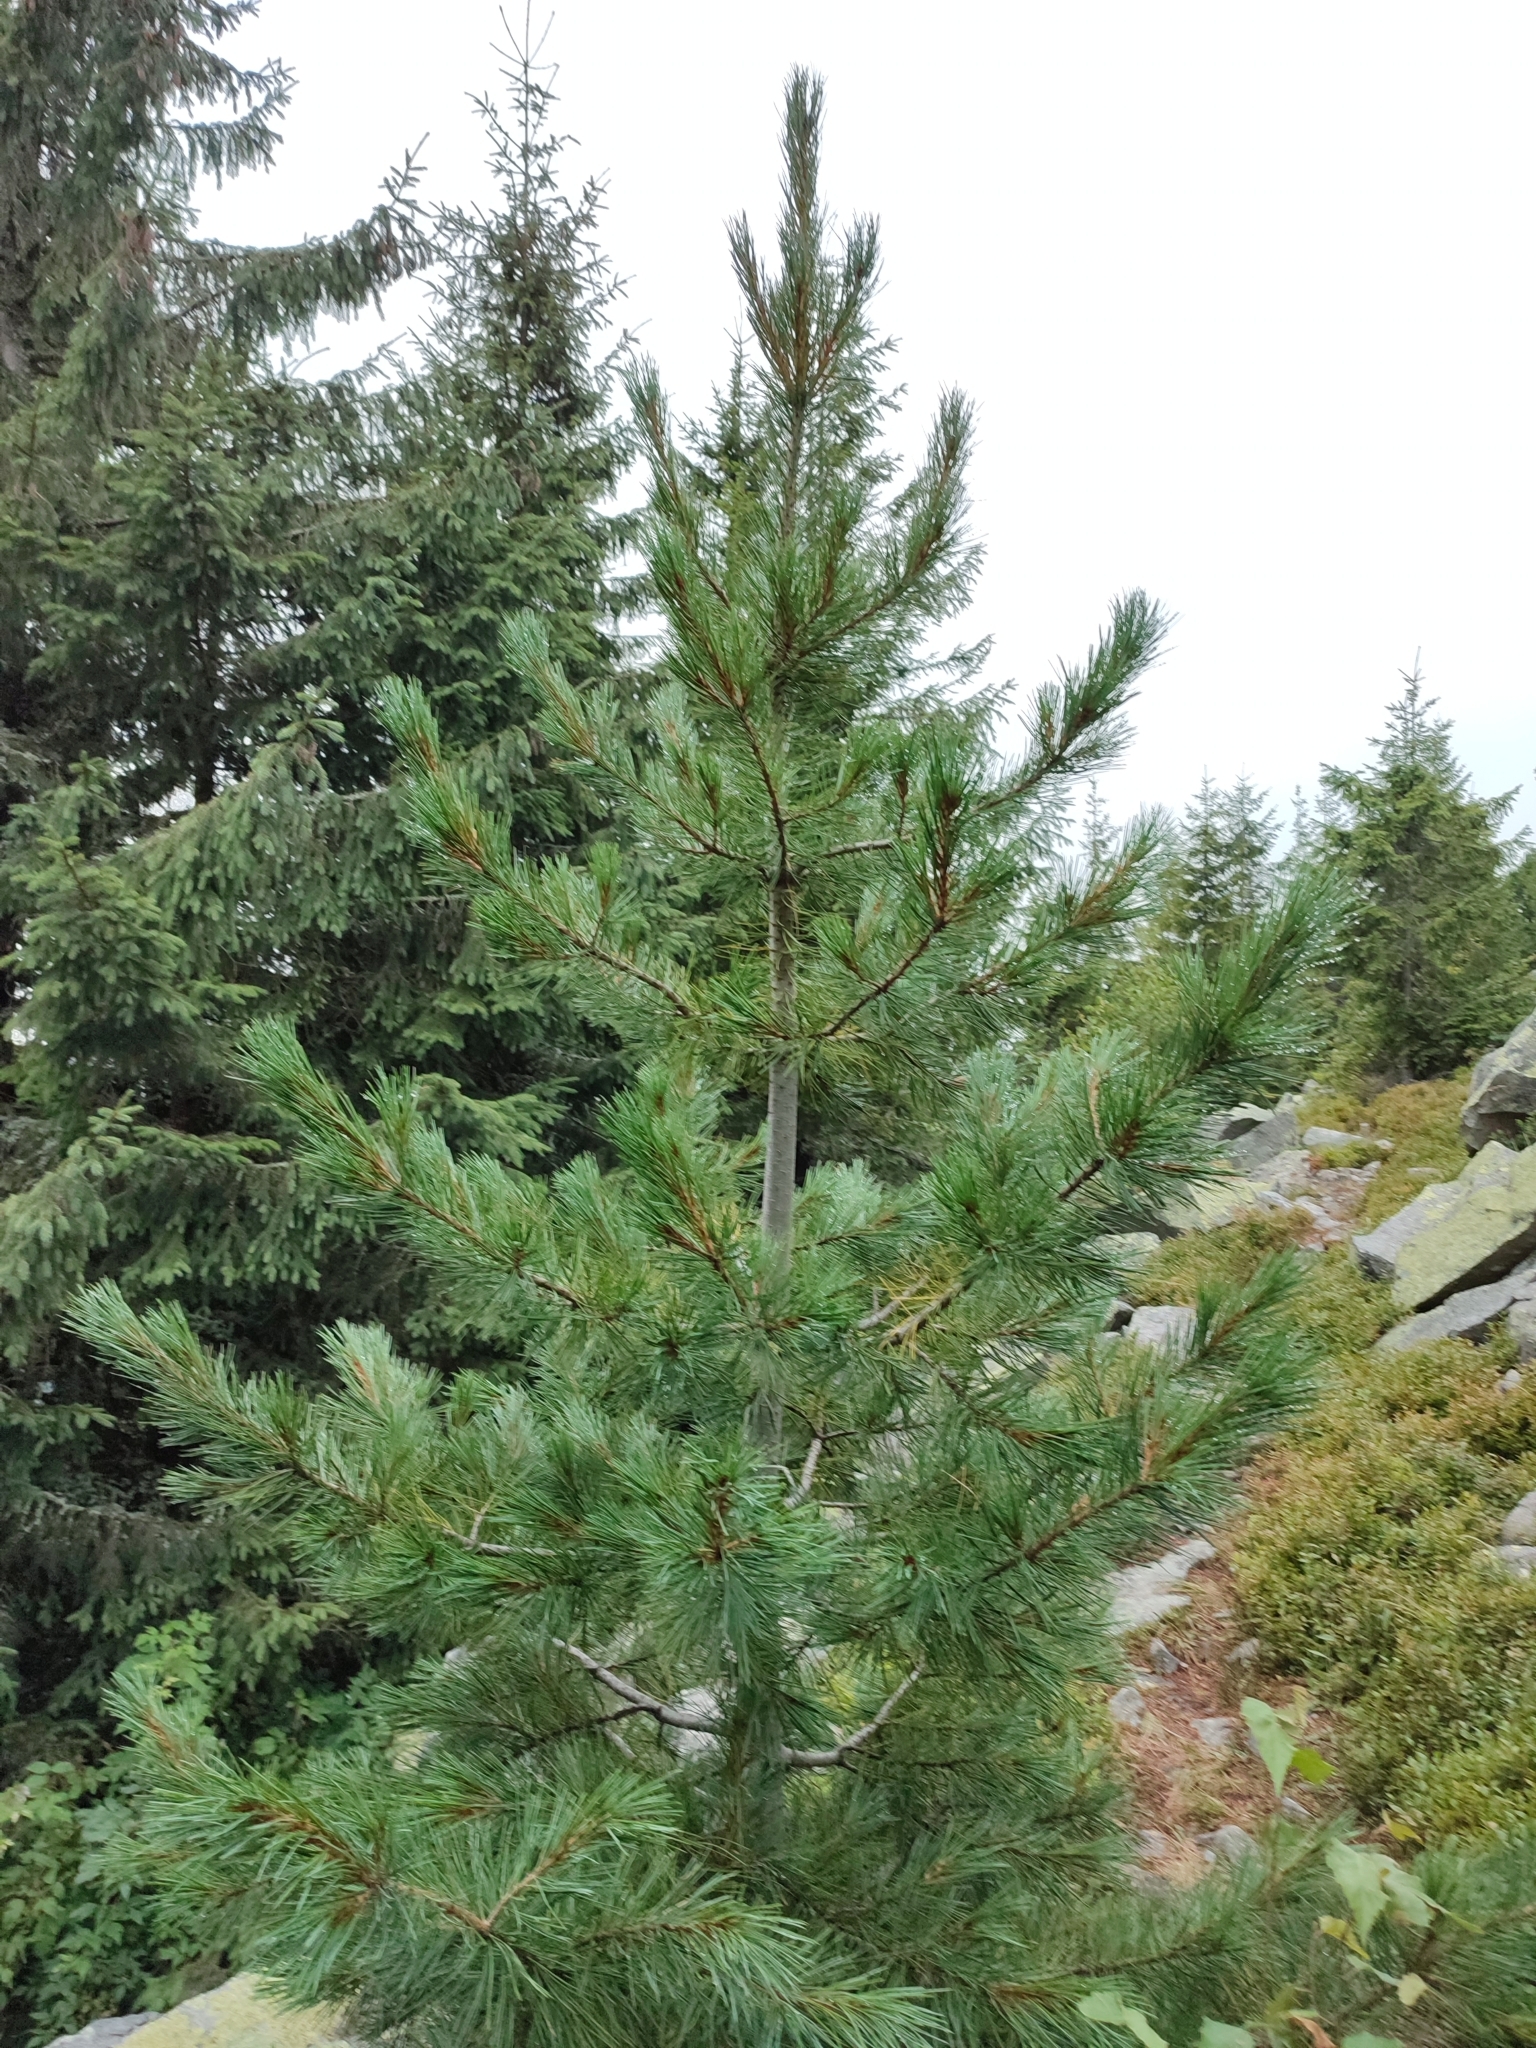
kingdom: Plantae
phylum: Tracheophyta
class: Pinopsida
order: Pinales
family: Pinaceae
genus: Pinus
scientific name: Pinus cembra
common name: Arolla pine
